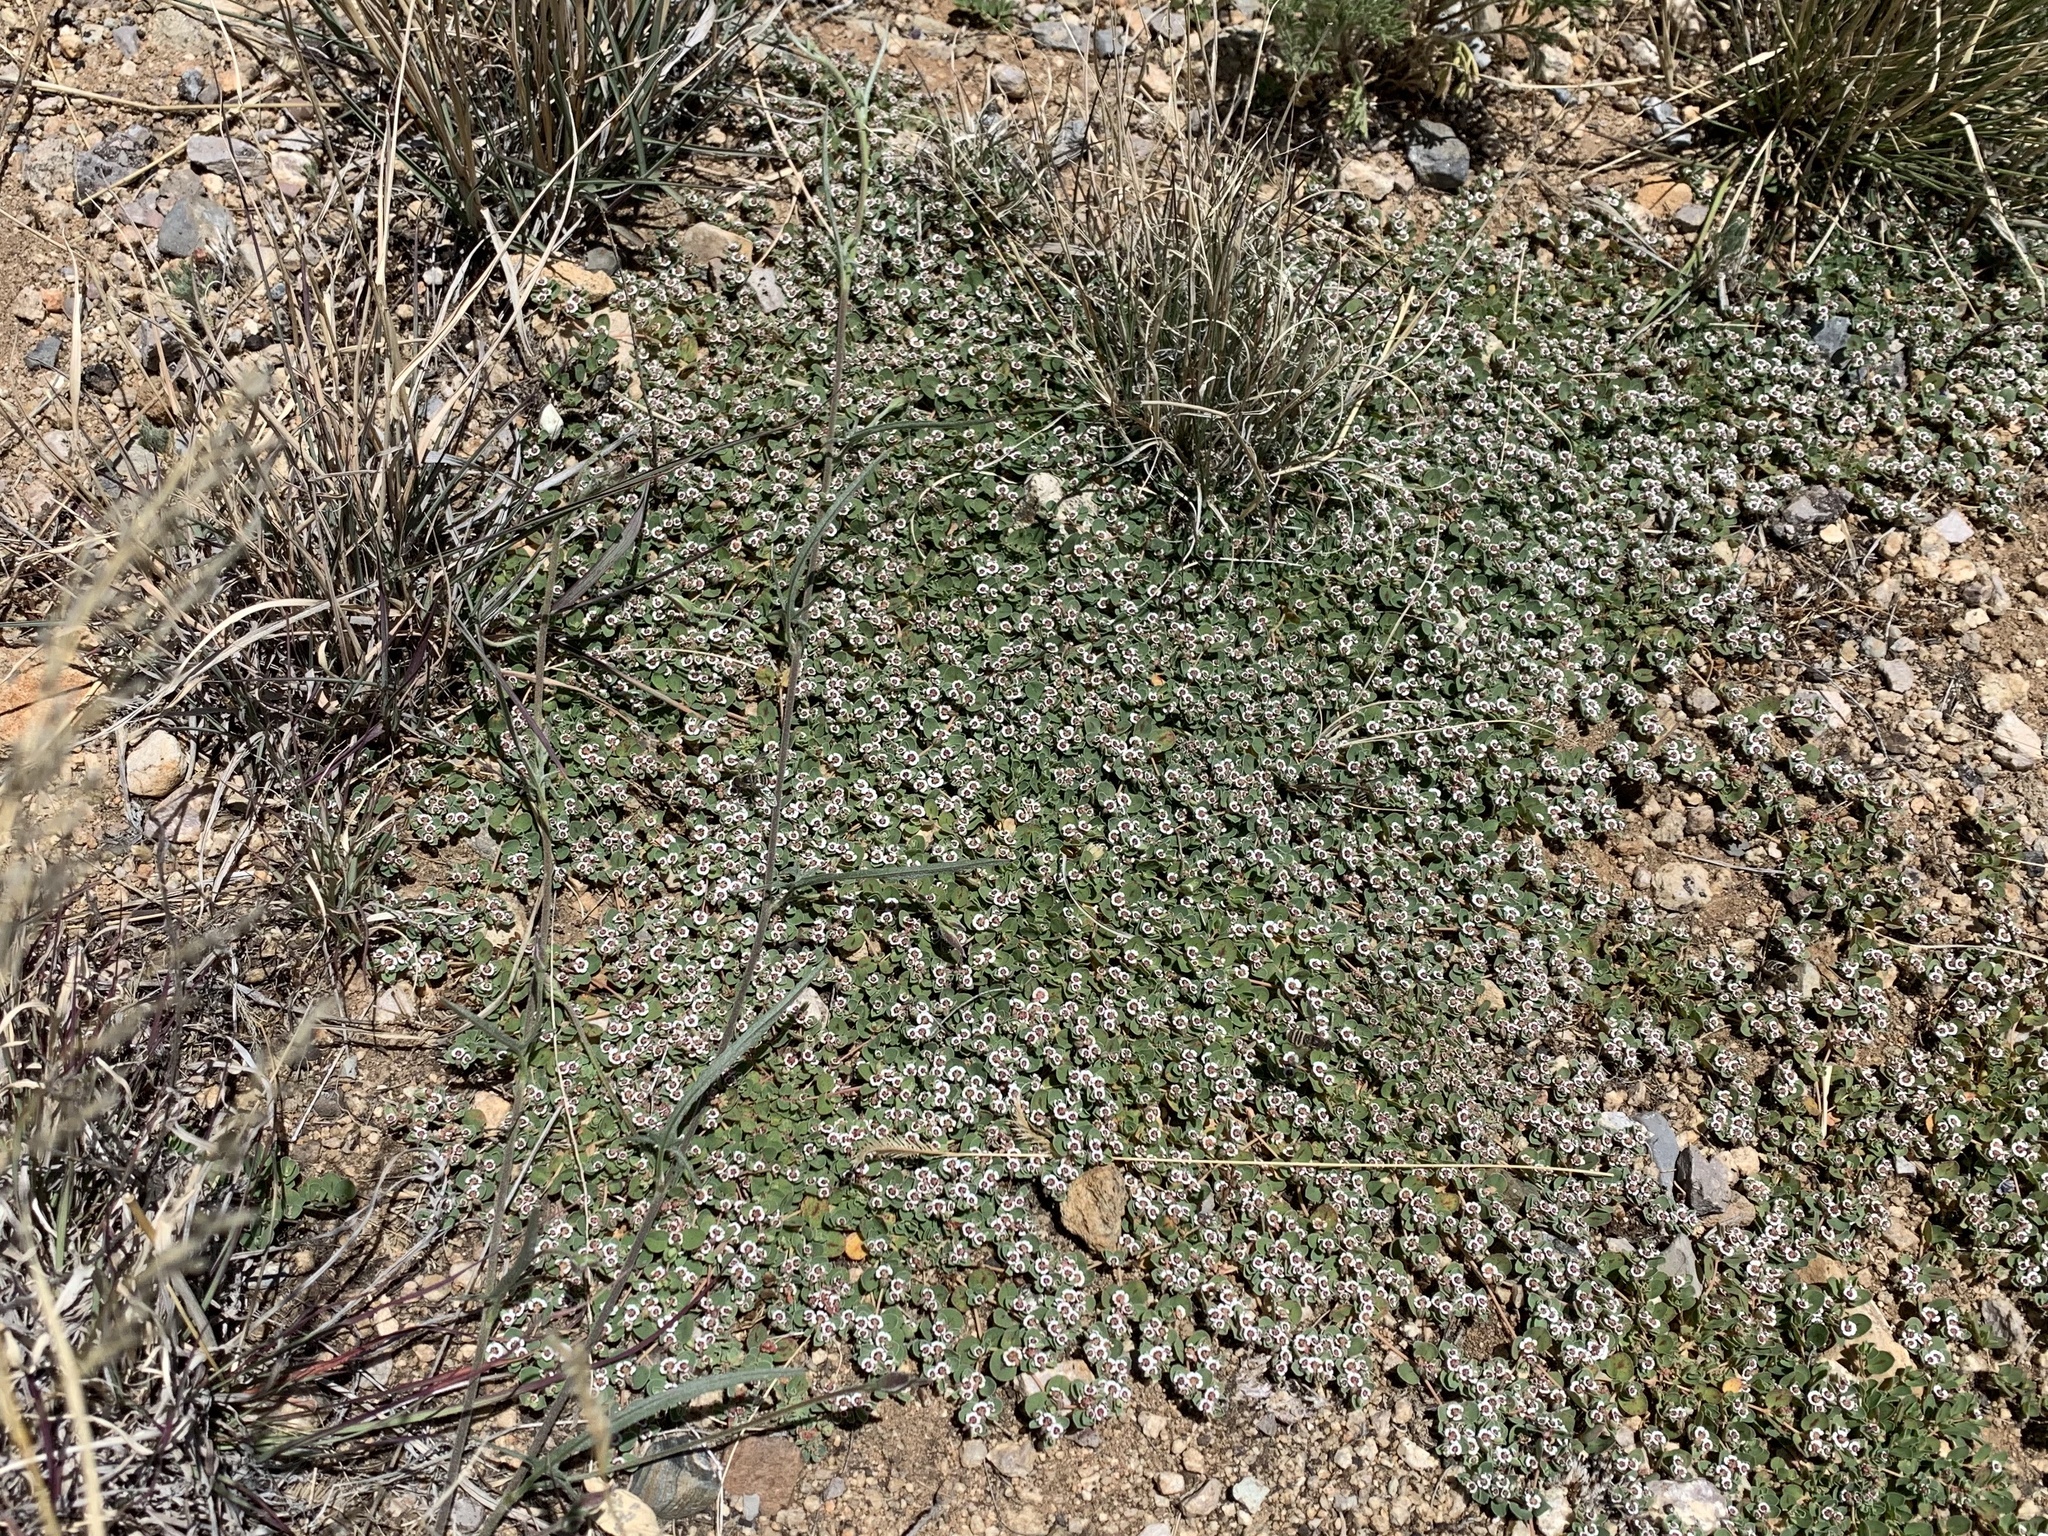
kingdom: Plantae
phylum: Tracheophyta
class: Magnoliopsida
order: Malpighiales
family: Euphorbiaceae
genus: Euphorbia
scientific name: Euphorbia albomarginata
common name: Whitemargin sandmat
